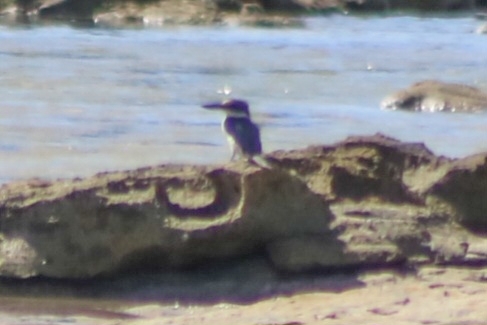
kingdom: Animalia
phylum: Chordata
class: Aves
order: Coraciiformes
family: Alcedinidae
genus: Todiramphus
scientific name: Todiramphus sanctus
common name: Sacred kingfisher
